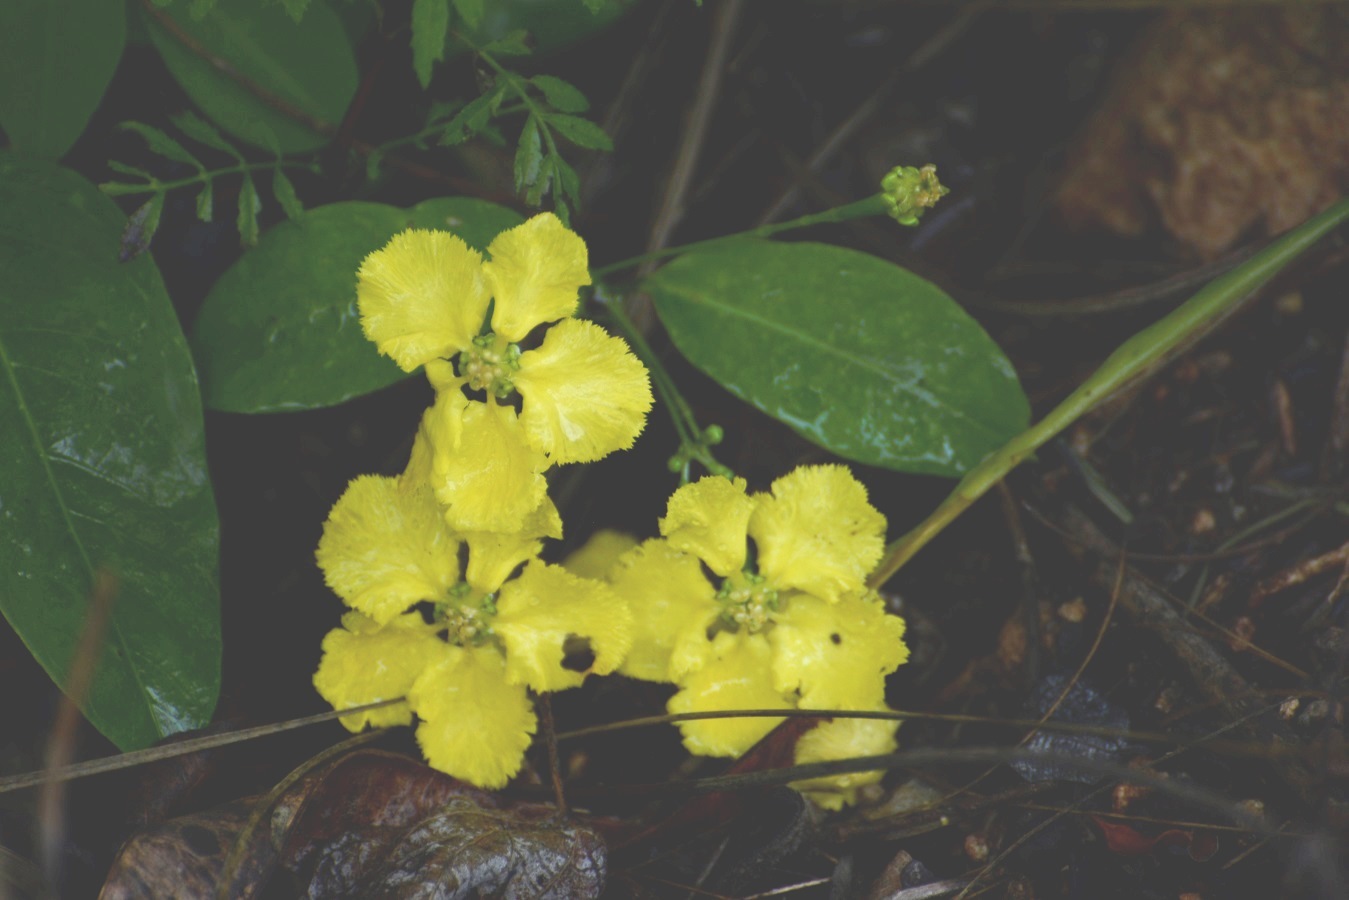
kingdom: Plantae
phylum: Tracheophyta
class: Magnoliopsida
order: Malpighiales
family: Malpighiaceae
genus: Stigmaphyllon
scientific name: Stigmaphyllon ellipticum
